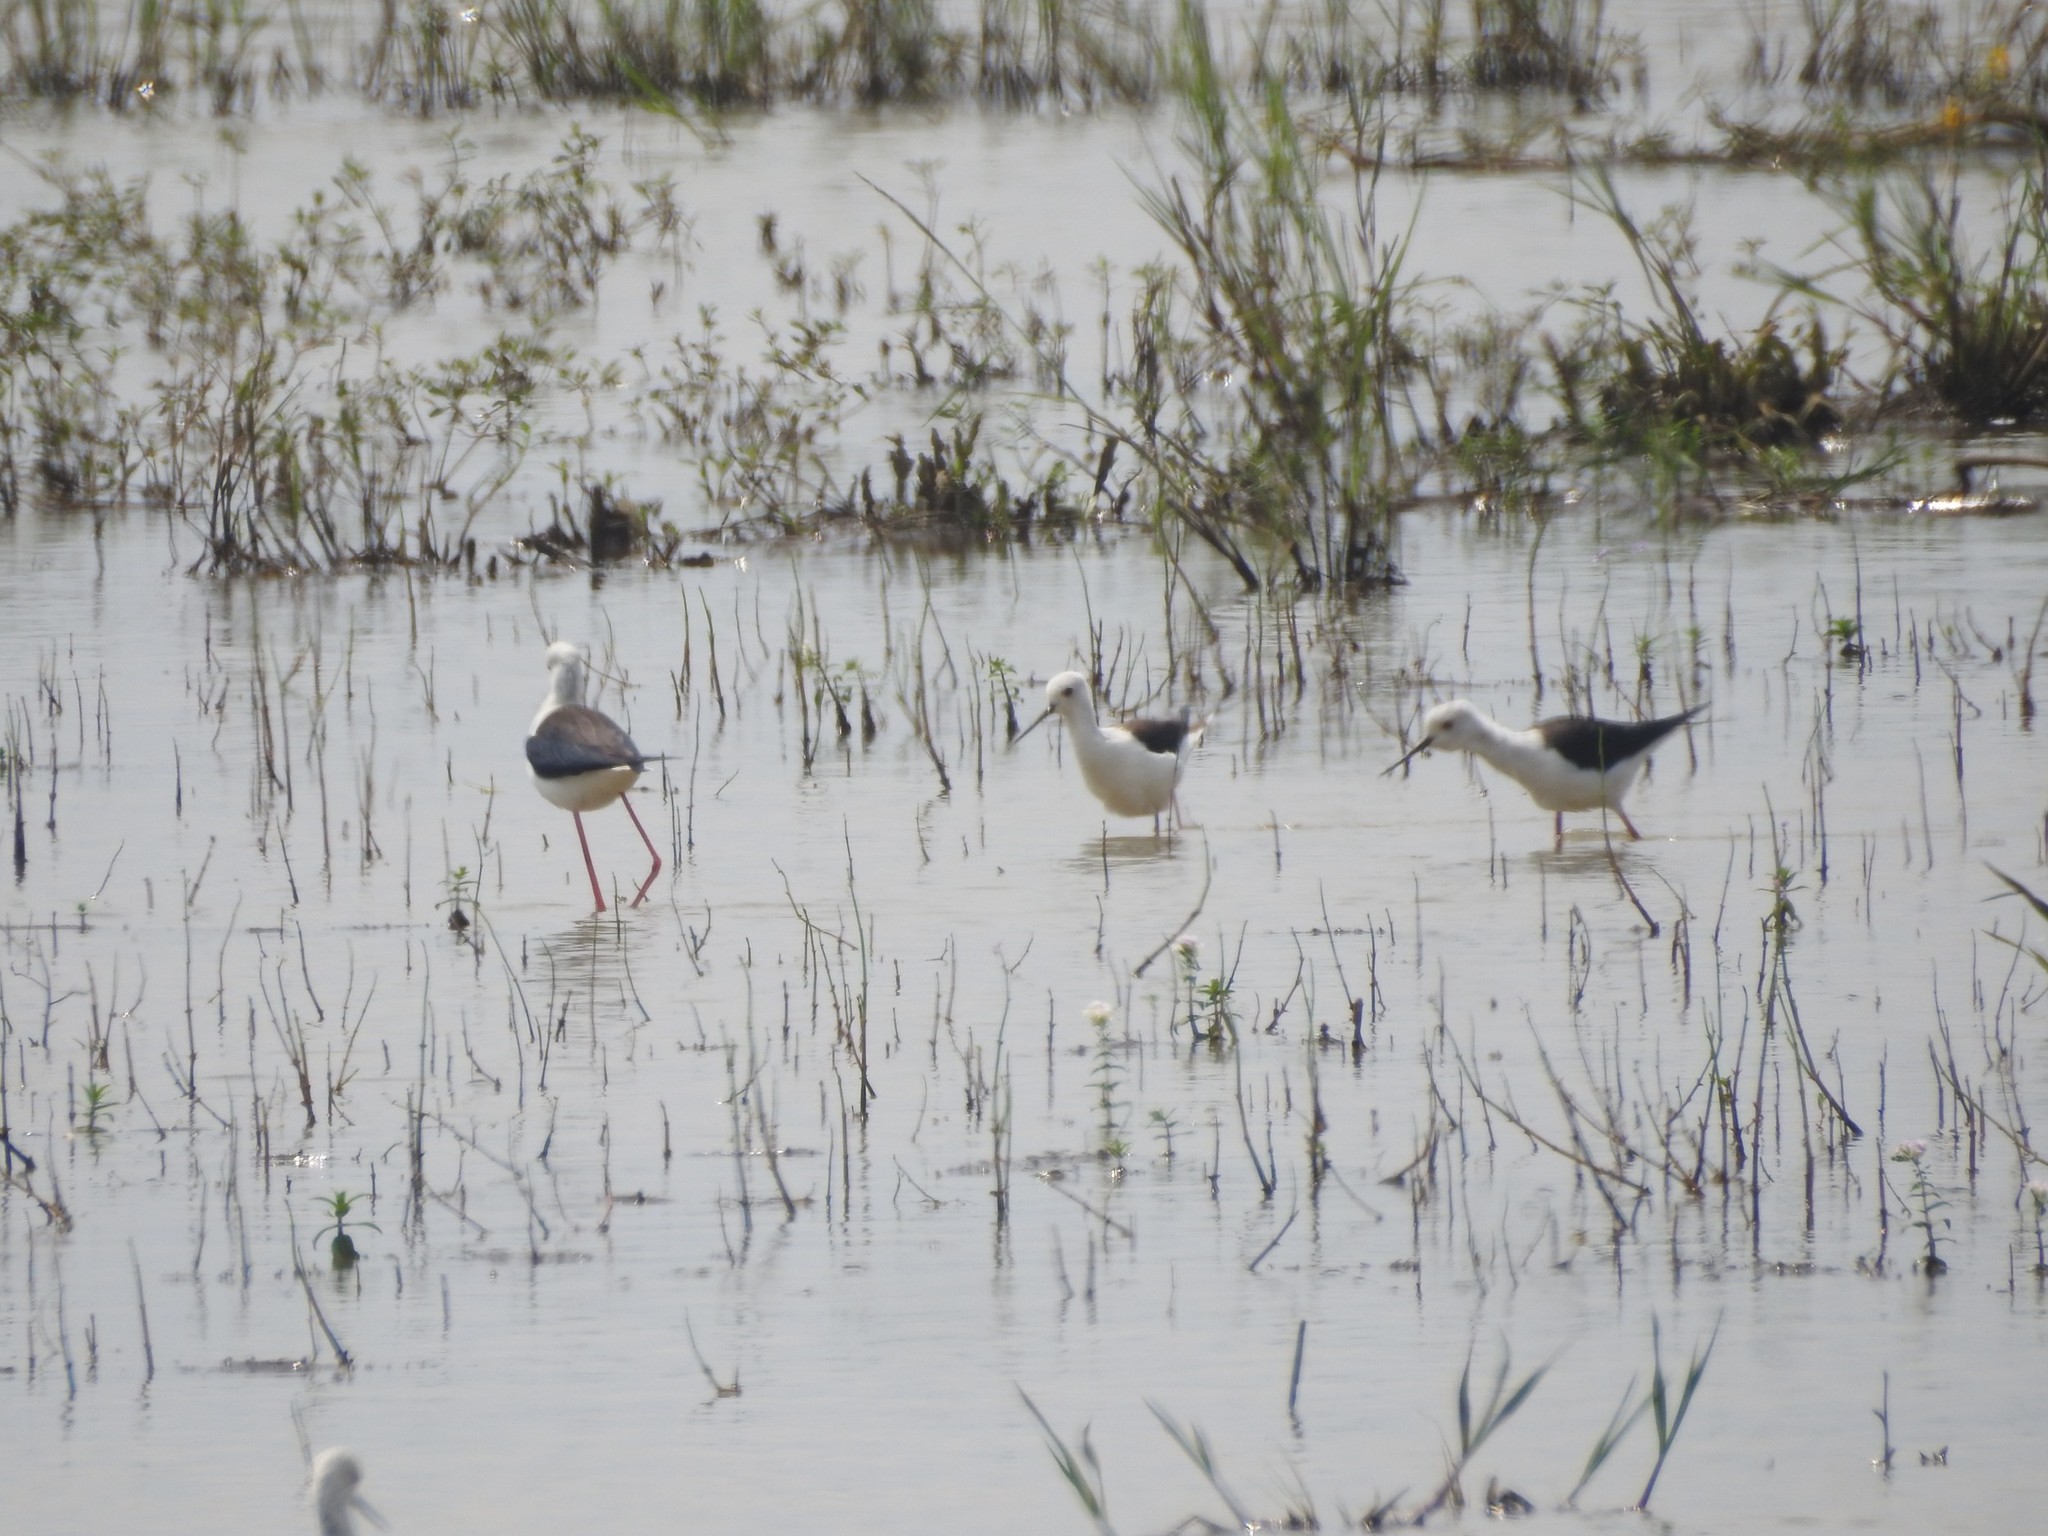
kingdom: Animalia
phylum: Chordata
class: Aves
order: Charadriiformes
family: Recurvirostridae
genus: Himantopus
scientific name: Himantopus himantopus
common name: Black-winged stilt
